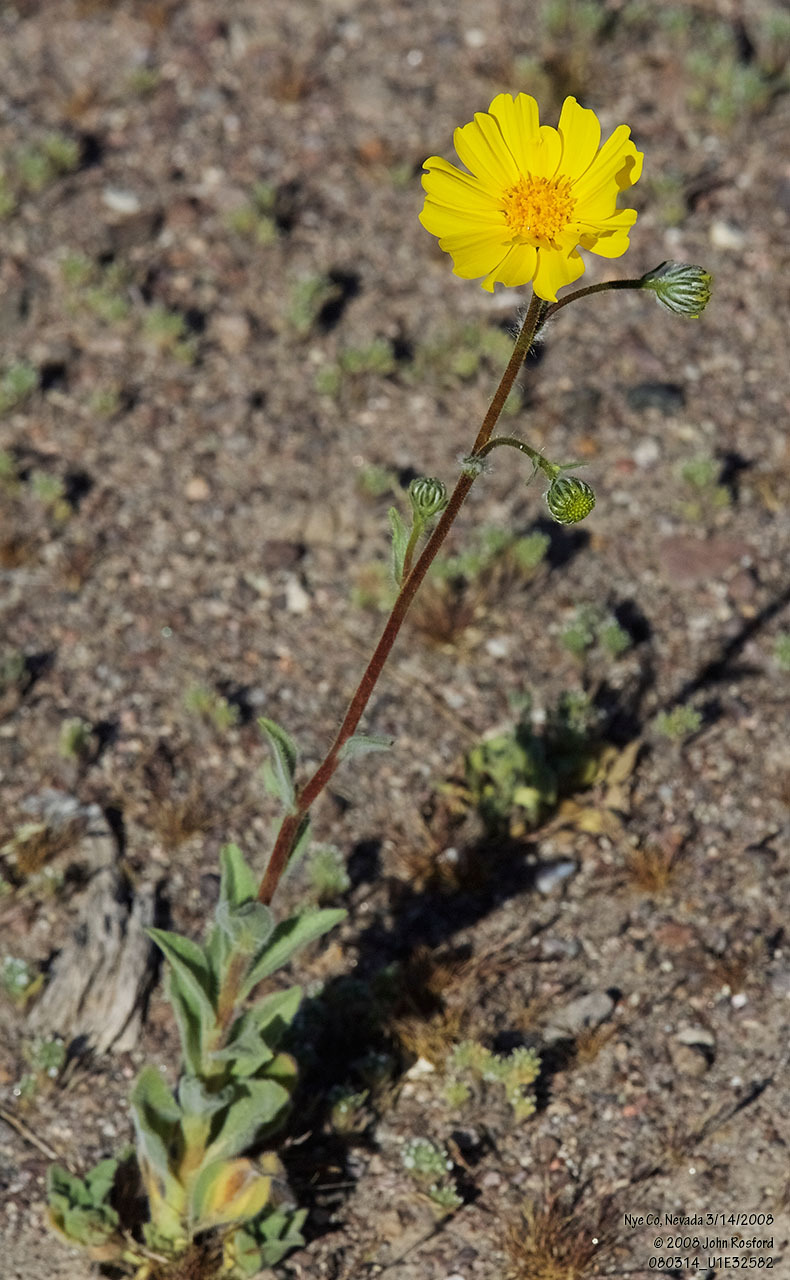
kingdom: Plantae
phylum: Tracheophyta
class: Magnoliopsida
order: Asterales
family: Asteraceae
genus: Geraea
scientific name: Geraea canescens
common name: Desert-gold
